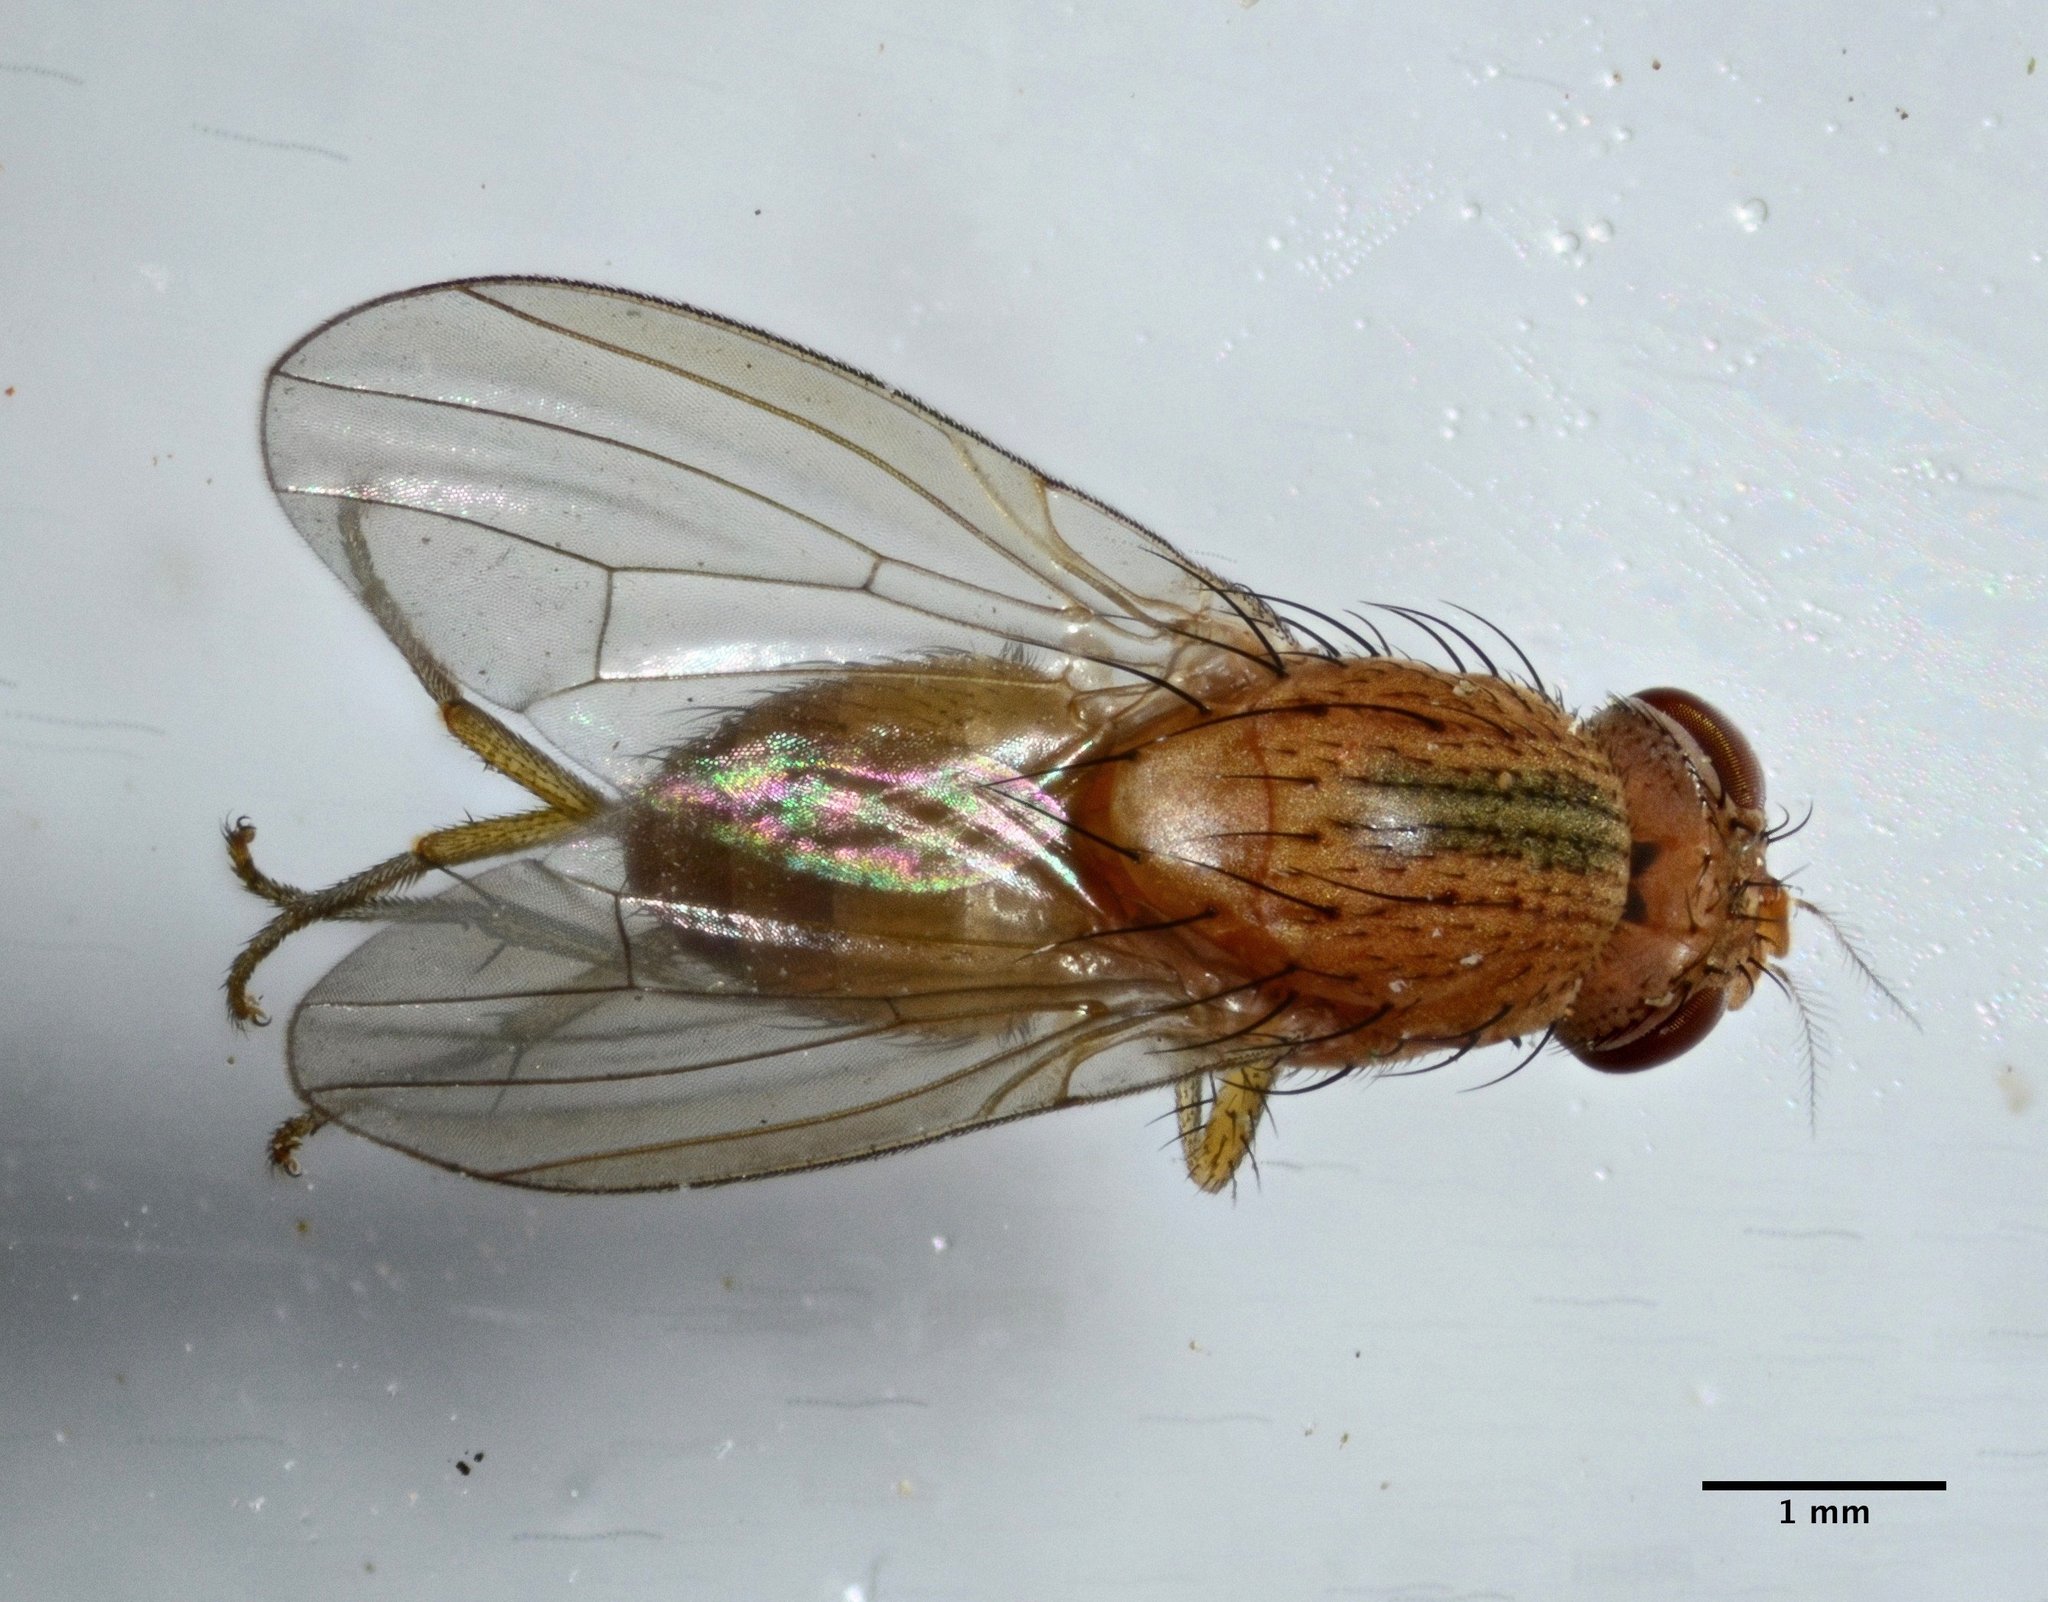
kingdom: Animalia
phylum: Arthropoda
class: Insecta
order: Diptera
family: Lauxaniidae
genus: Minettia
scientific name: Minettia flaveola
